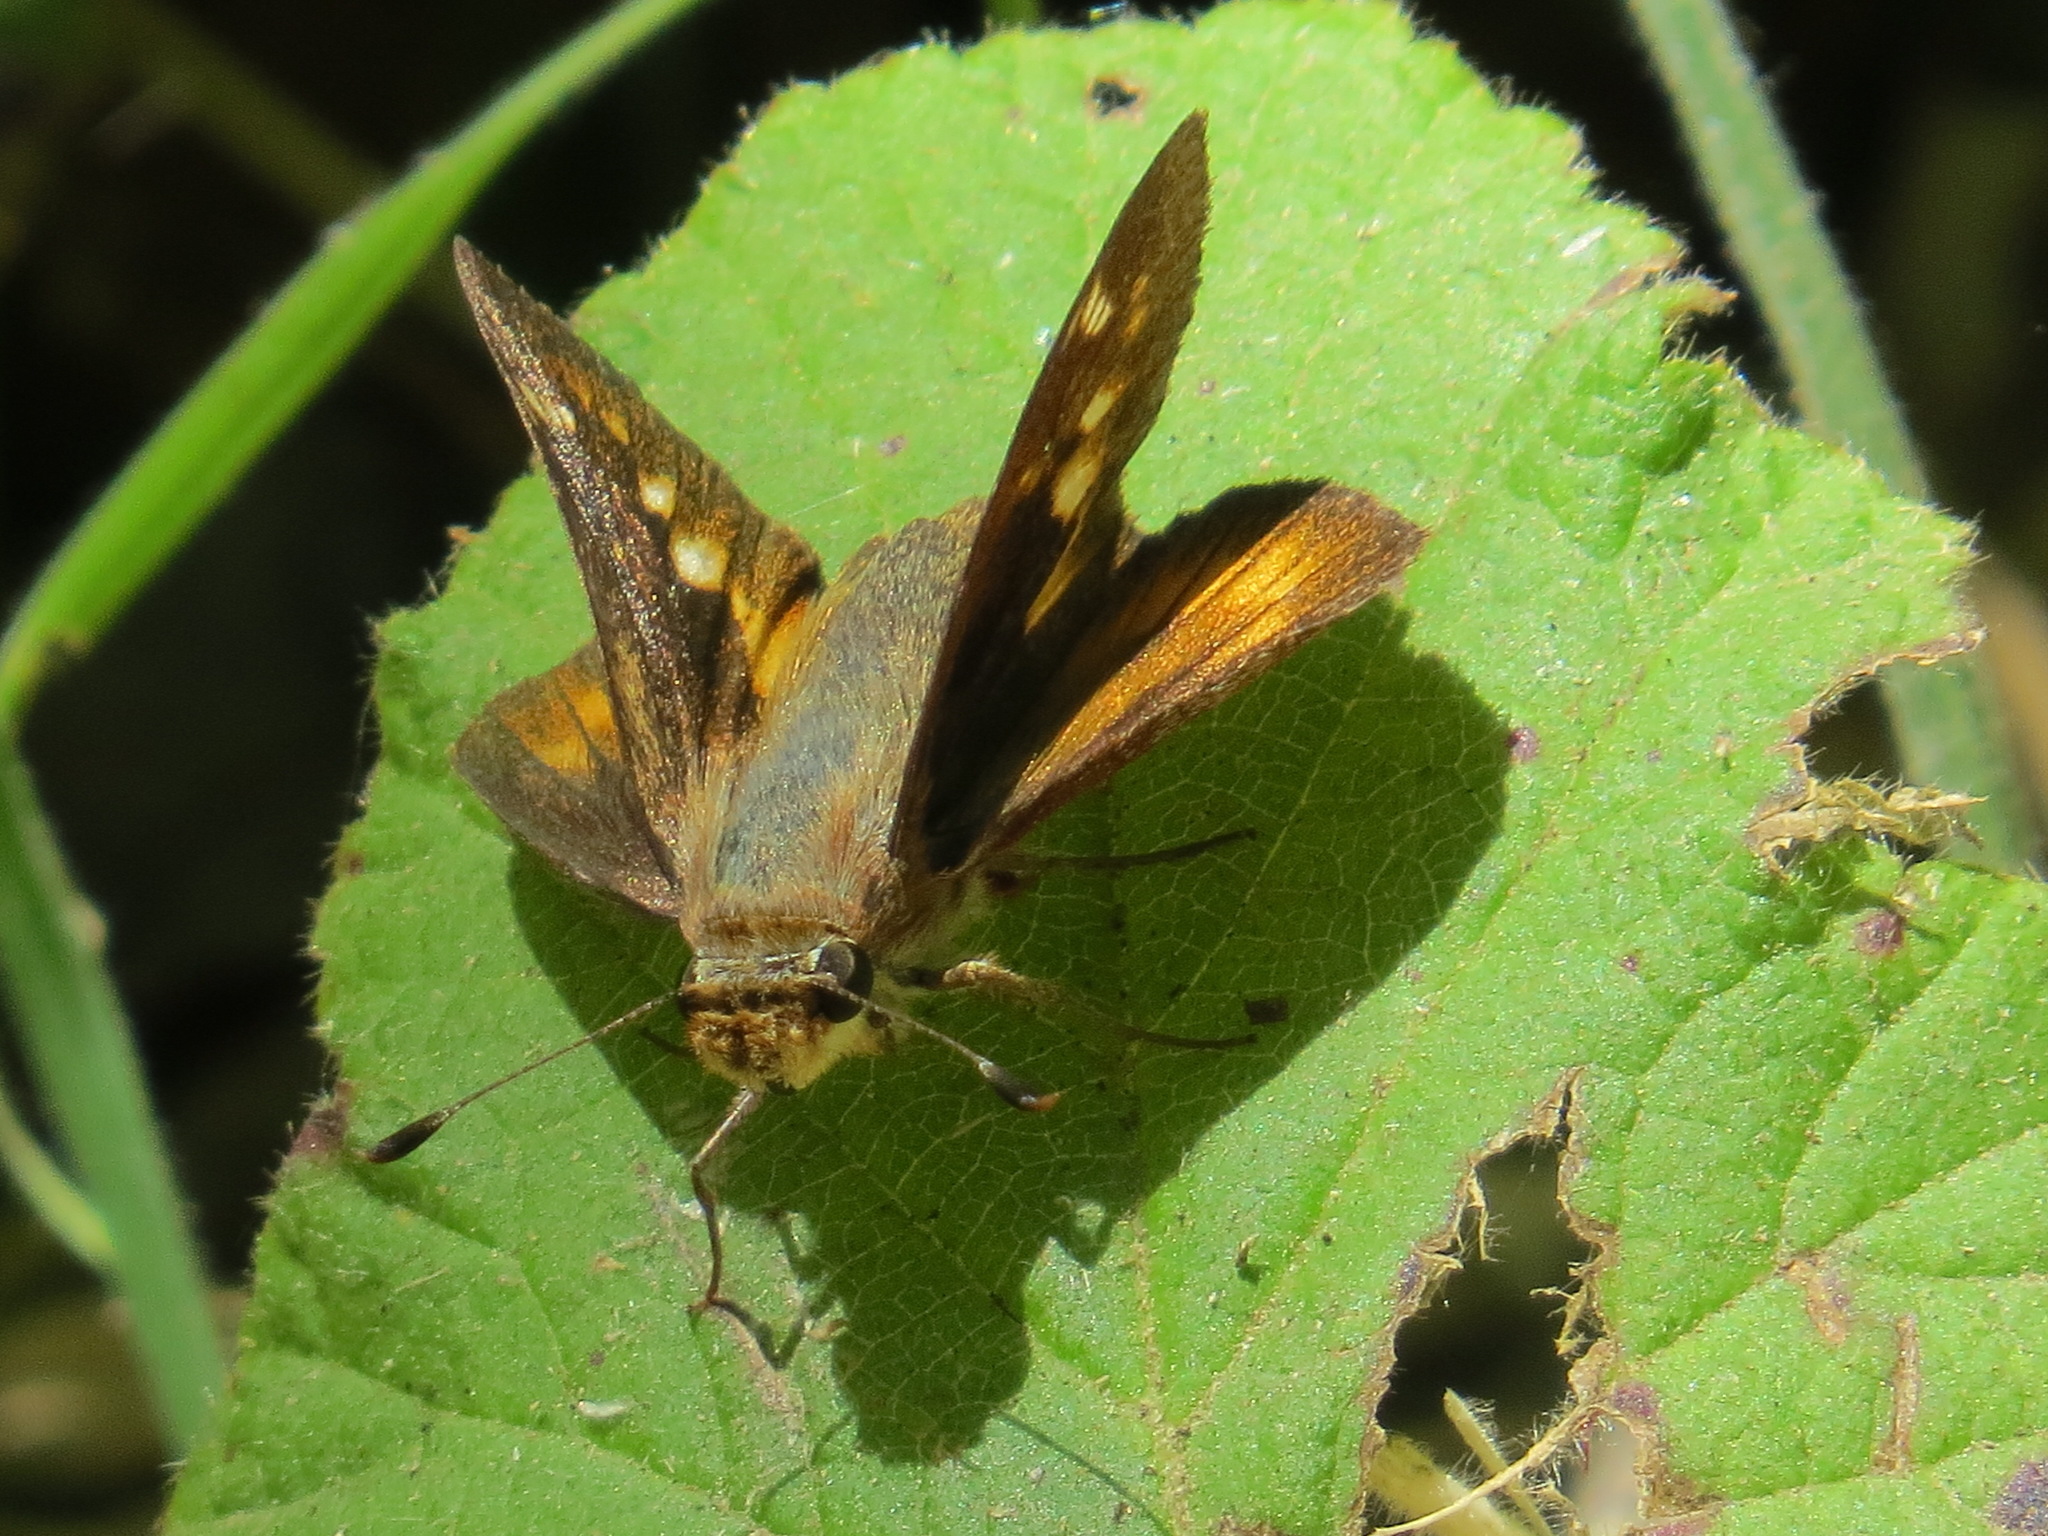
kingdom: Animalia
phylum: Arthropoda
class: Insecta
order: Lepidoptera
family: Hesperiidae
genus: Lon
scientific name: Lon melane
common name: Umber skipper
